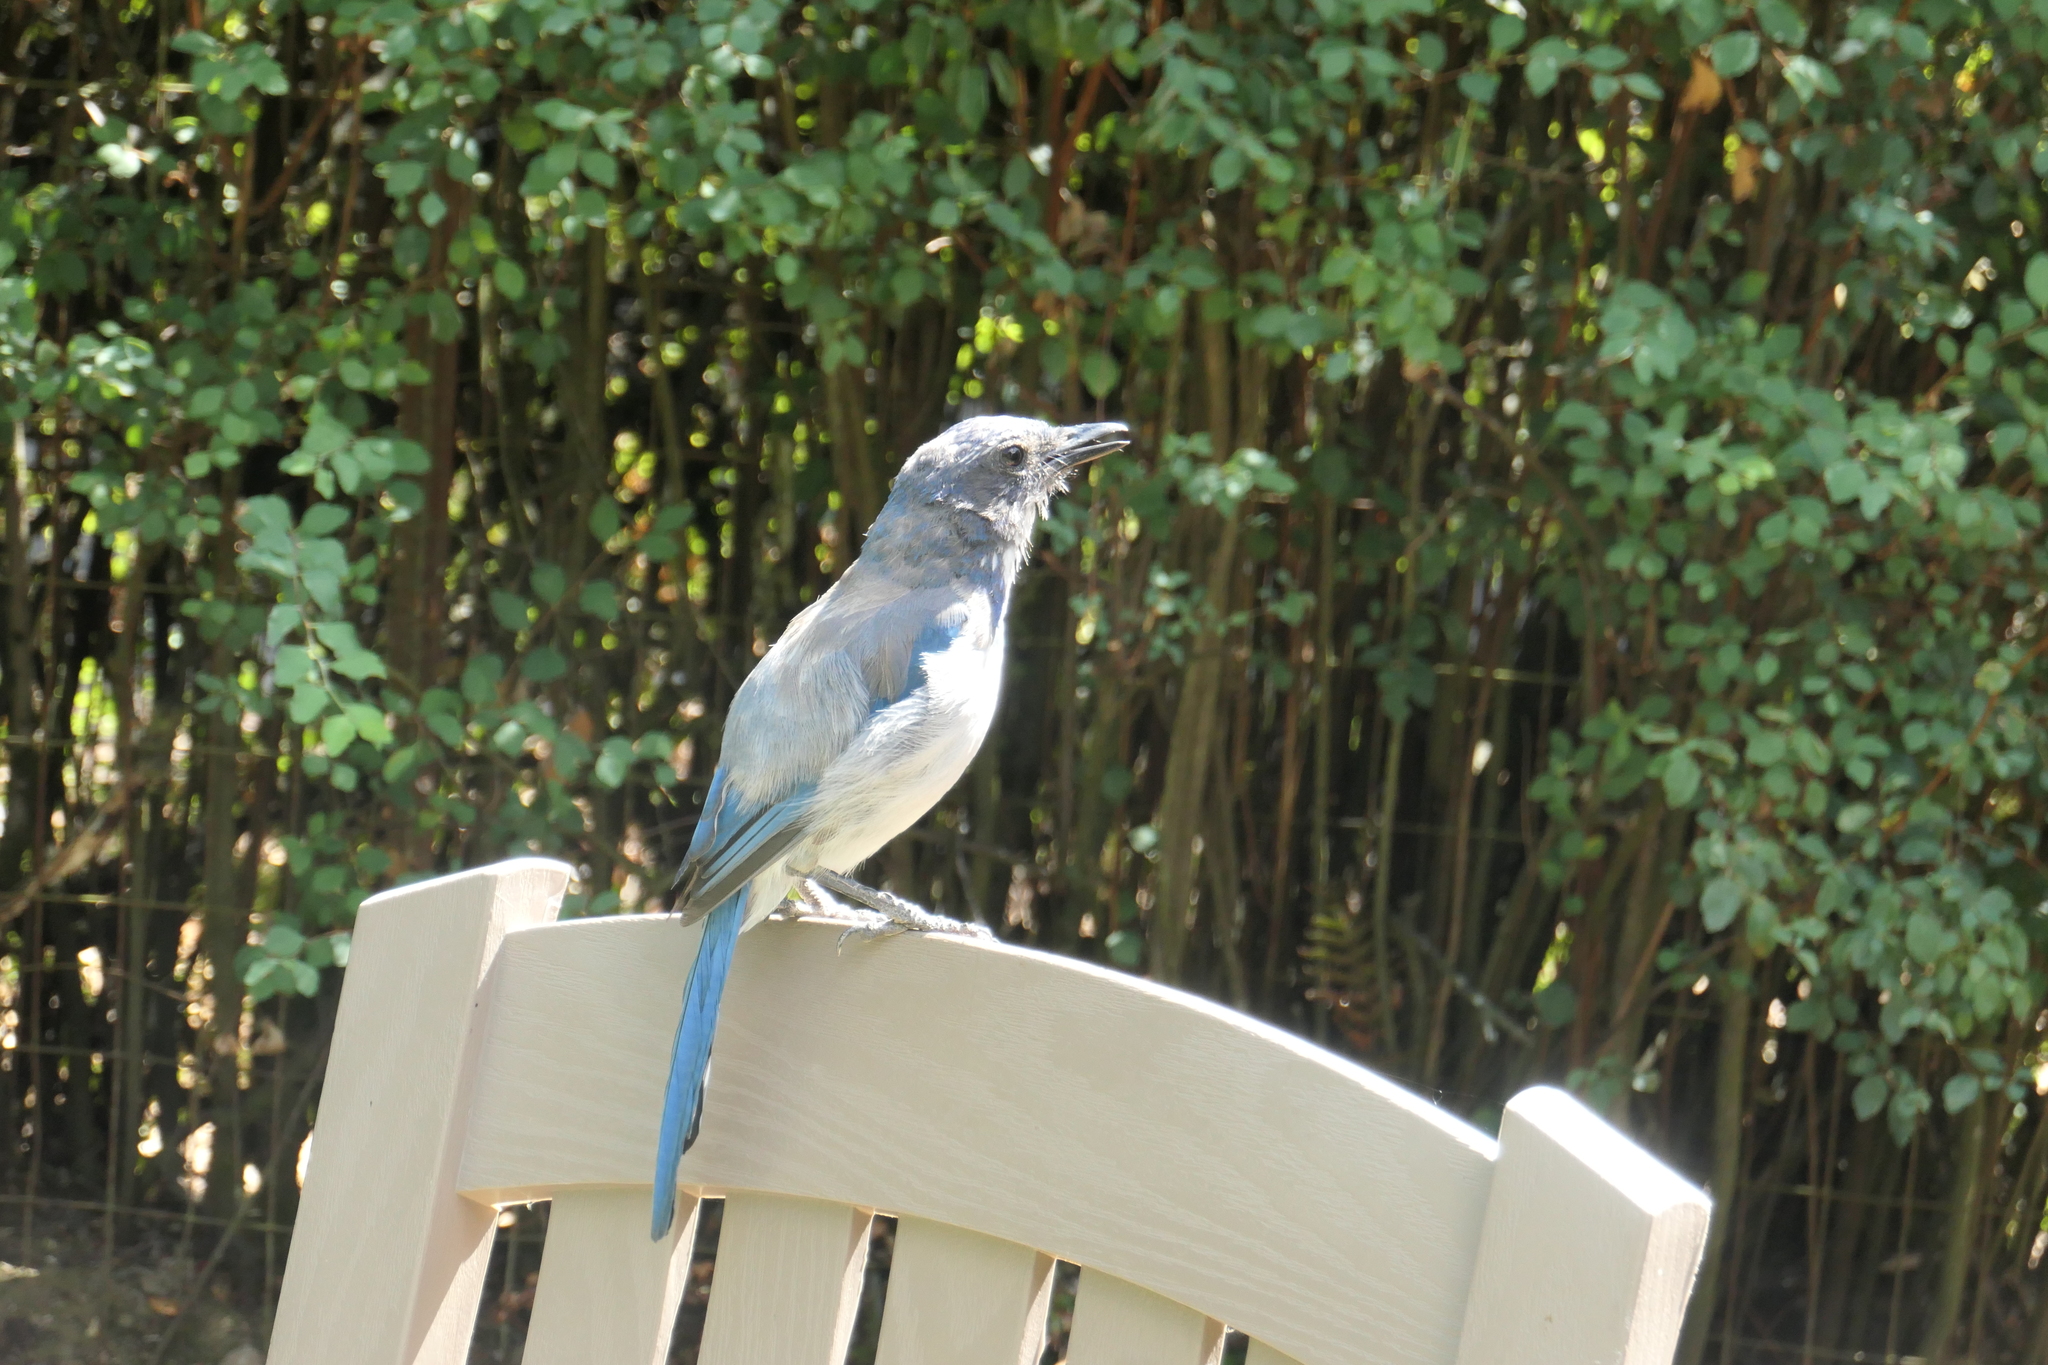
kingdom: Animalia
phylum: Chordata
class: Aves
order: Passeriformes
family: Corvidae
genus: Aphelocoma
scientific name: Aphelocoma californica
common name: California scrub-jay
